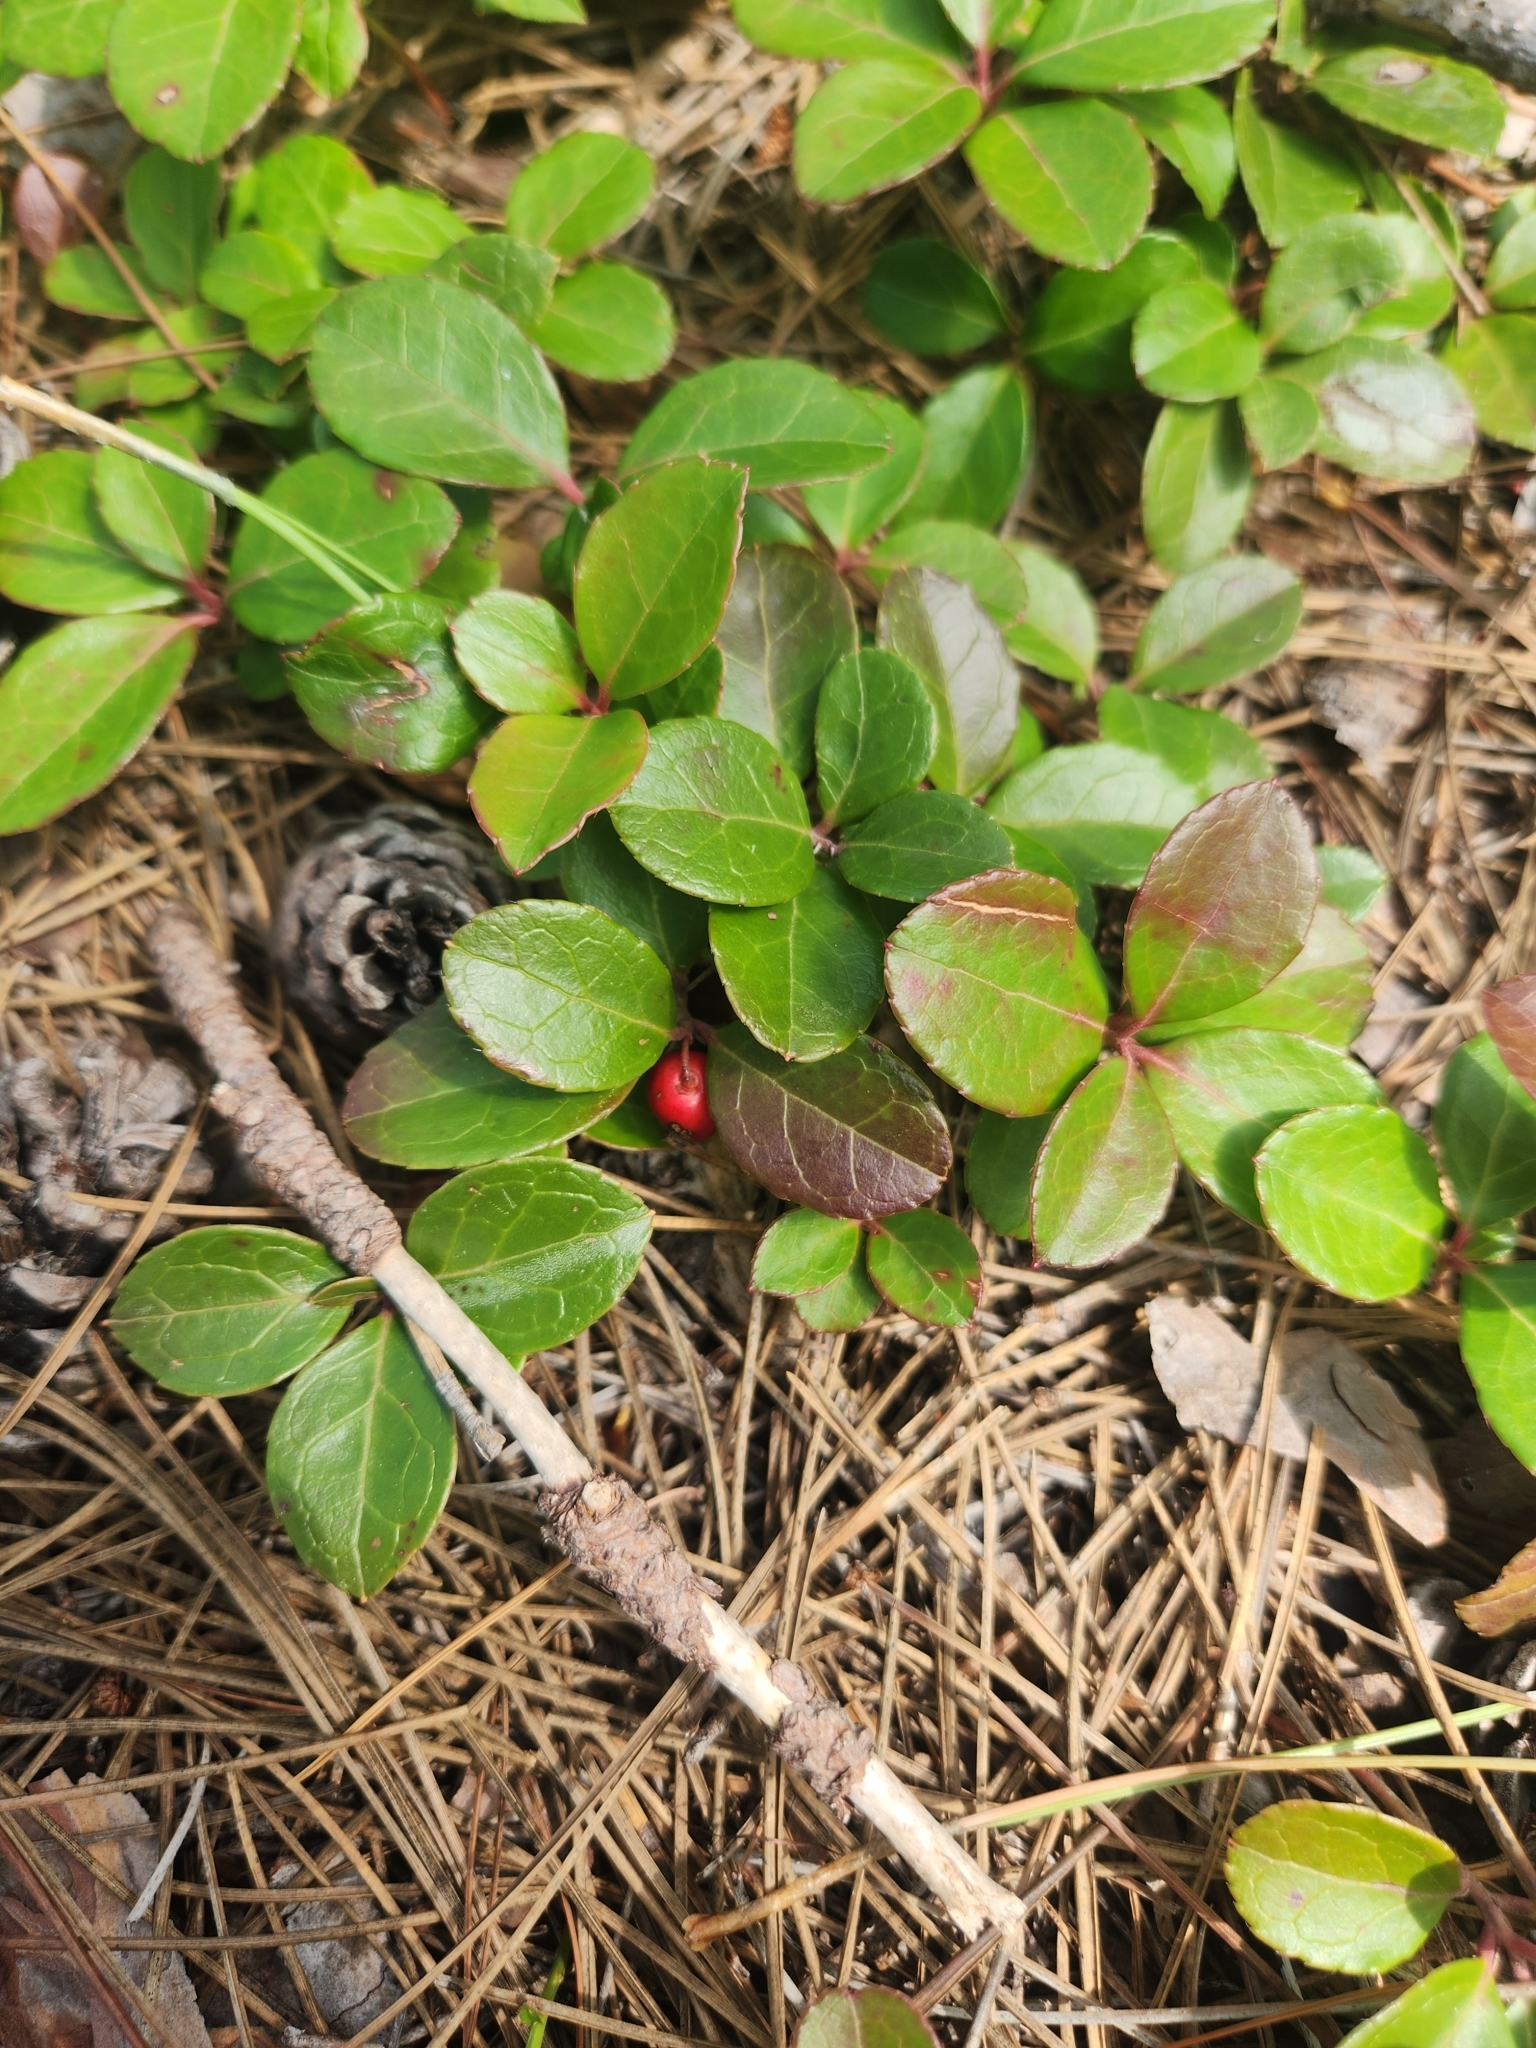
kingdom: Plantae
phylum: Tracheophyta
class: Magnoliopsida
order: Ericales
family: Ericaceae
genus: Gaultheria
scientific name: Gaultheria procumbens
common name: Checkerberry
